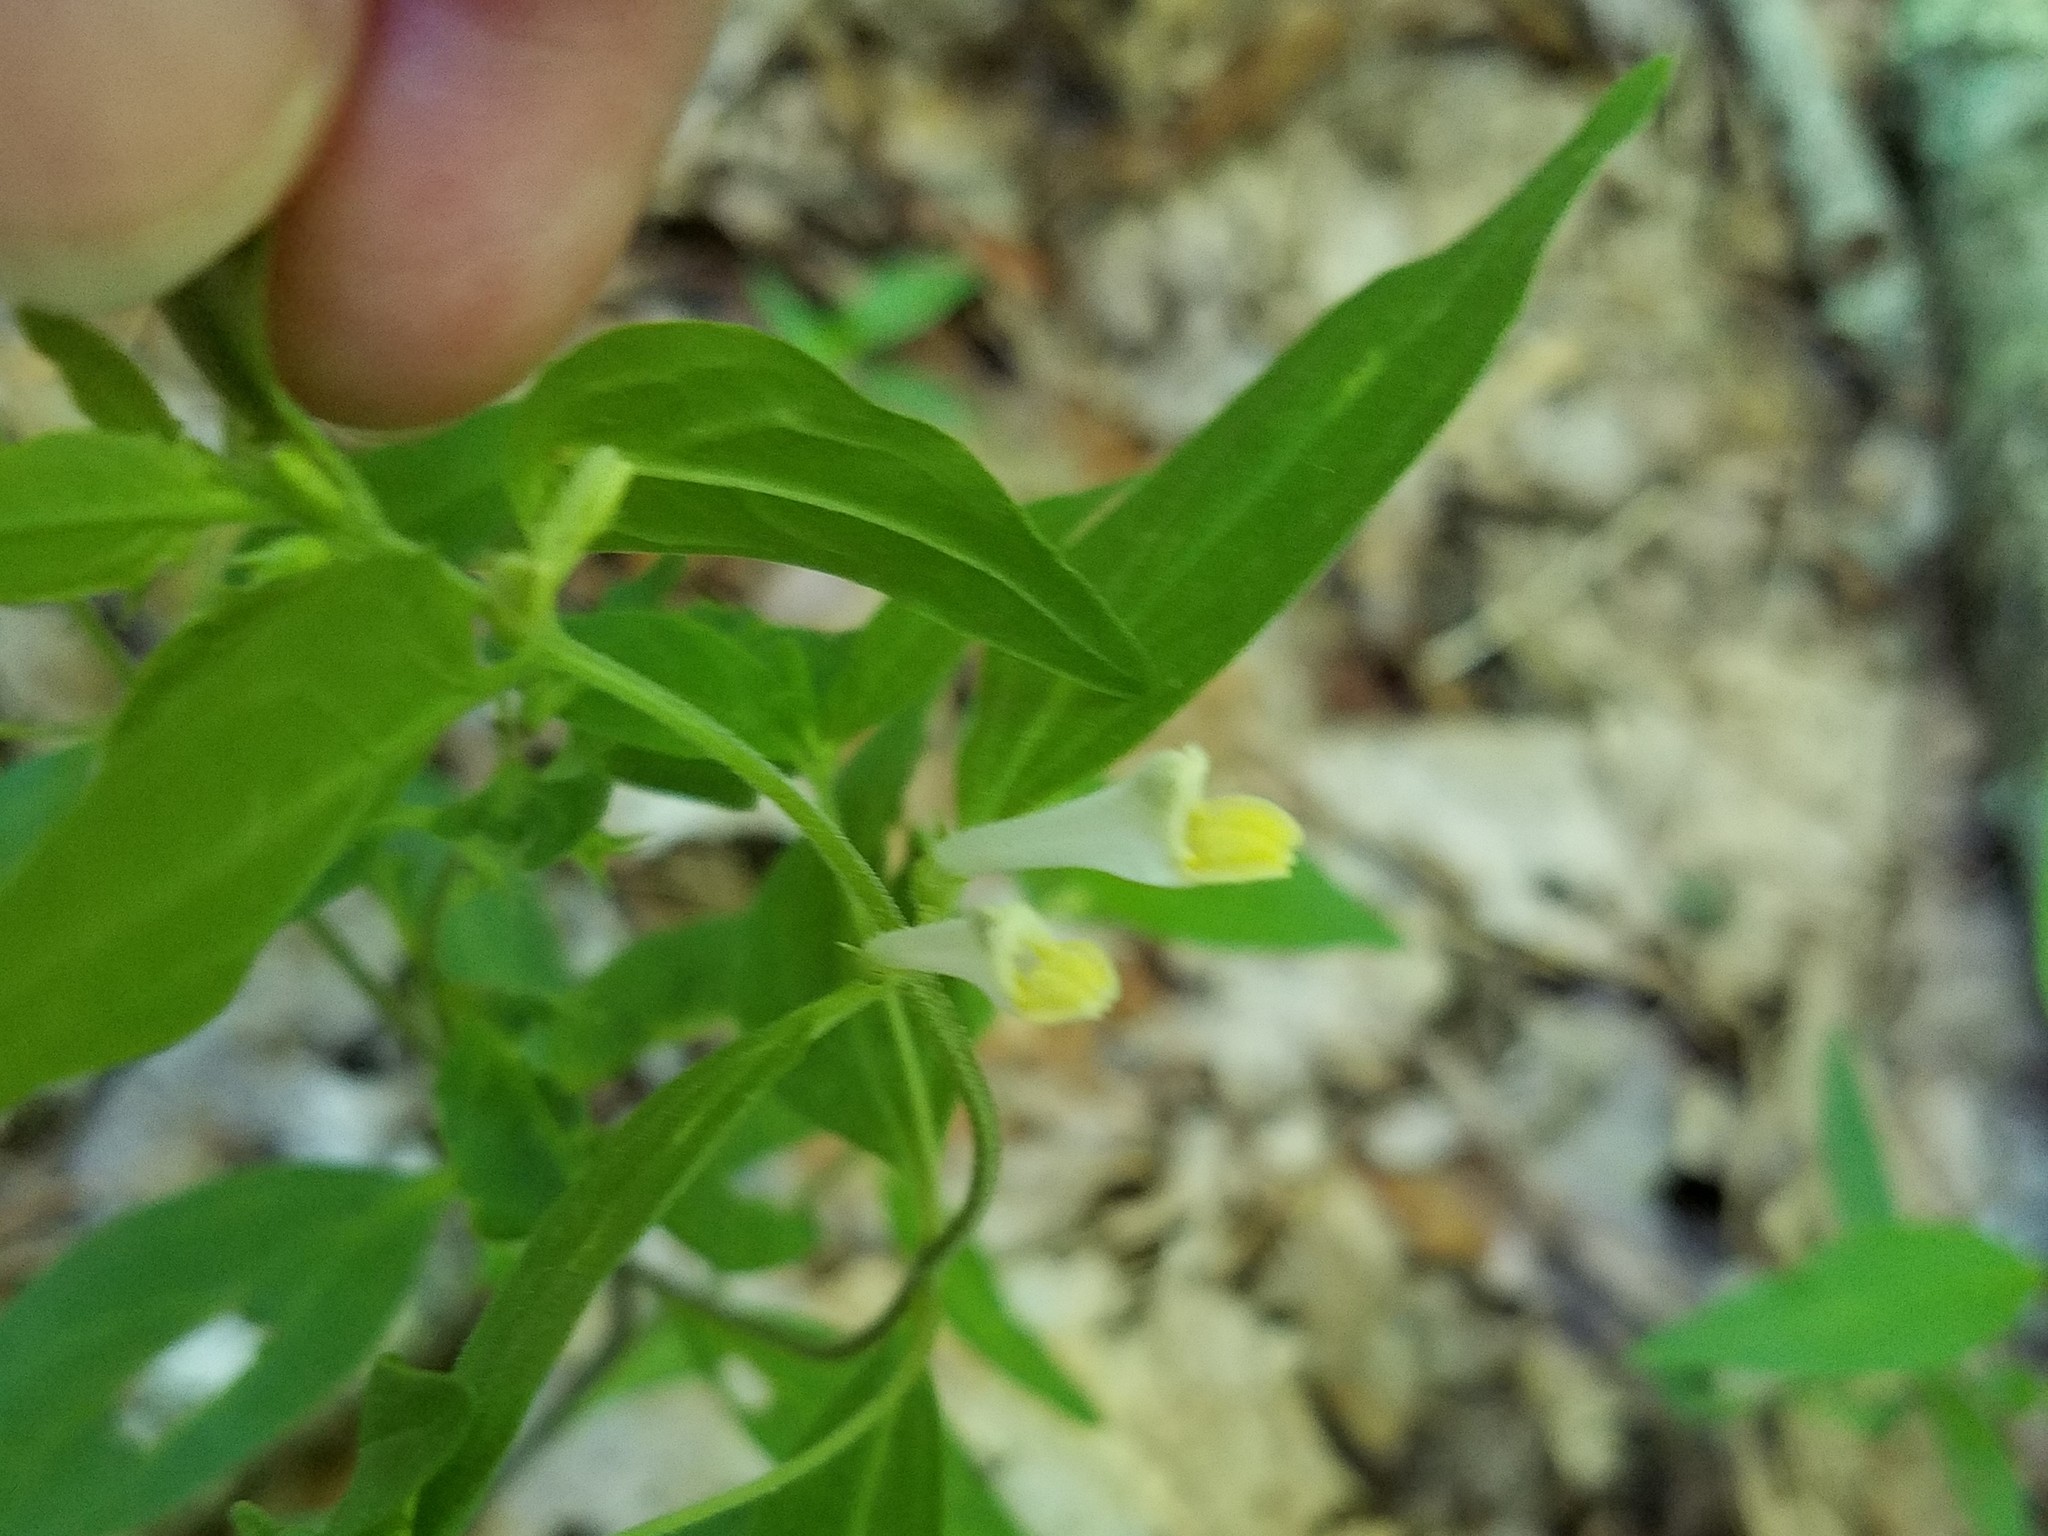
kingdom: Plantae
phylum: Tracheophyta
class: Magnoliopsida
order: Lamiales
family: Orobanchaceae
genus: Melampyrum
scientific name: Melampyrum lineare
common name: American cow-wheat
